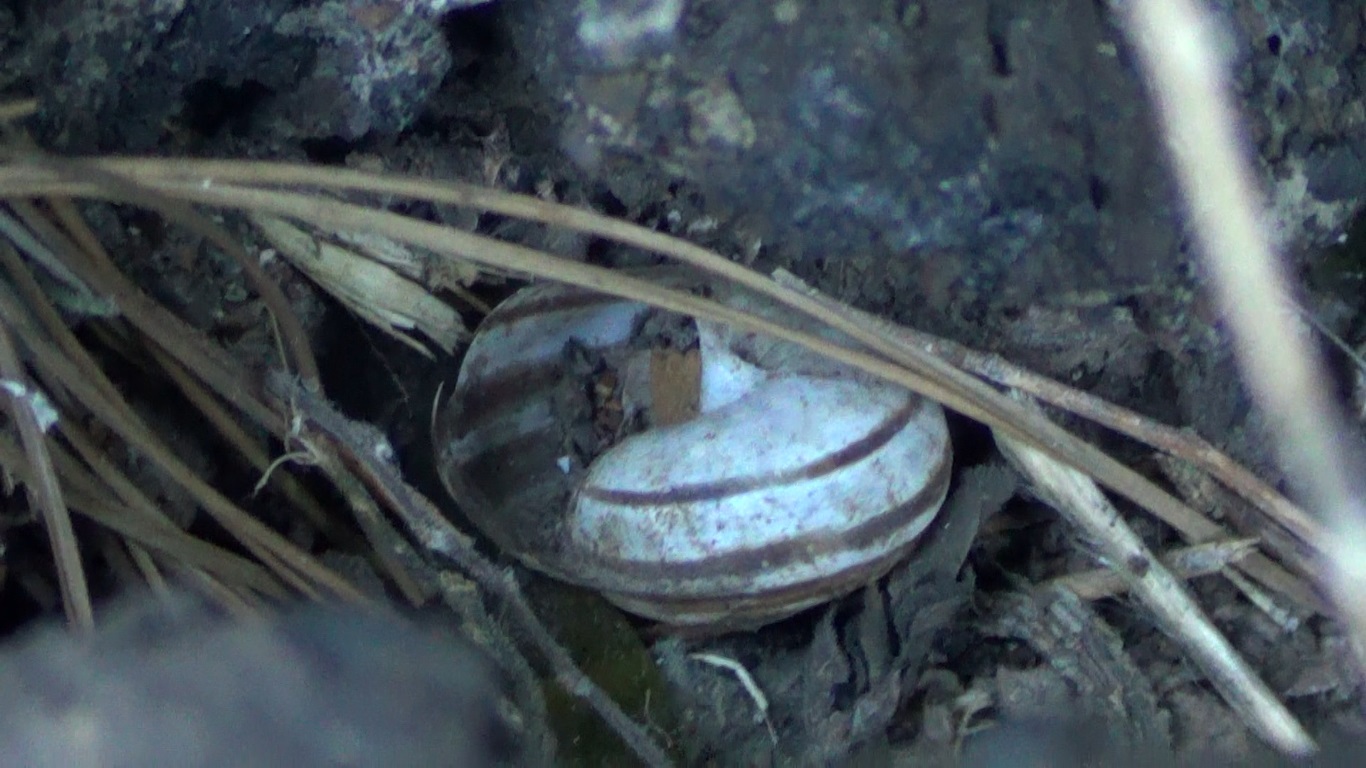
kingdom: Animalia
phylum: Mollusca
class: Gastropoda
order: Stylommatophora
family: Helicidae
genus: Eobania
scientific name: Eobania vermiculata
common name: Chocolateband snail
